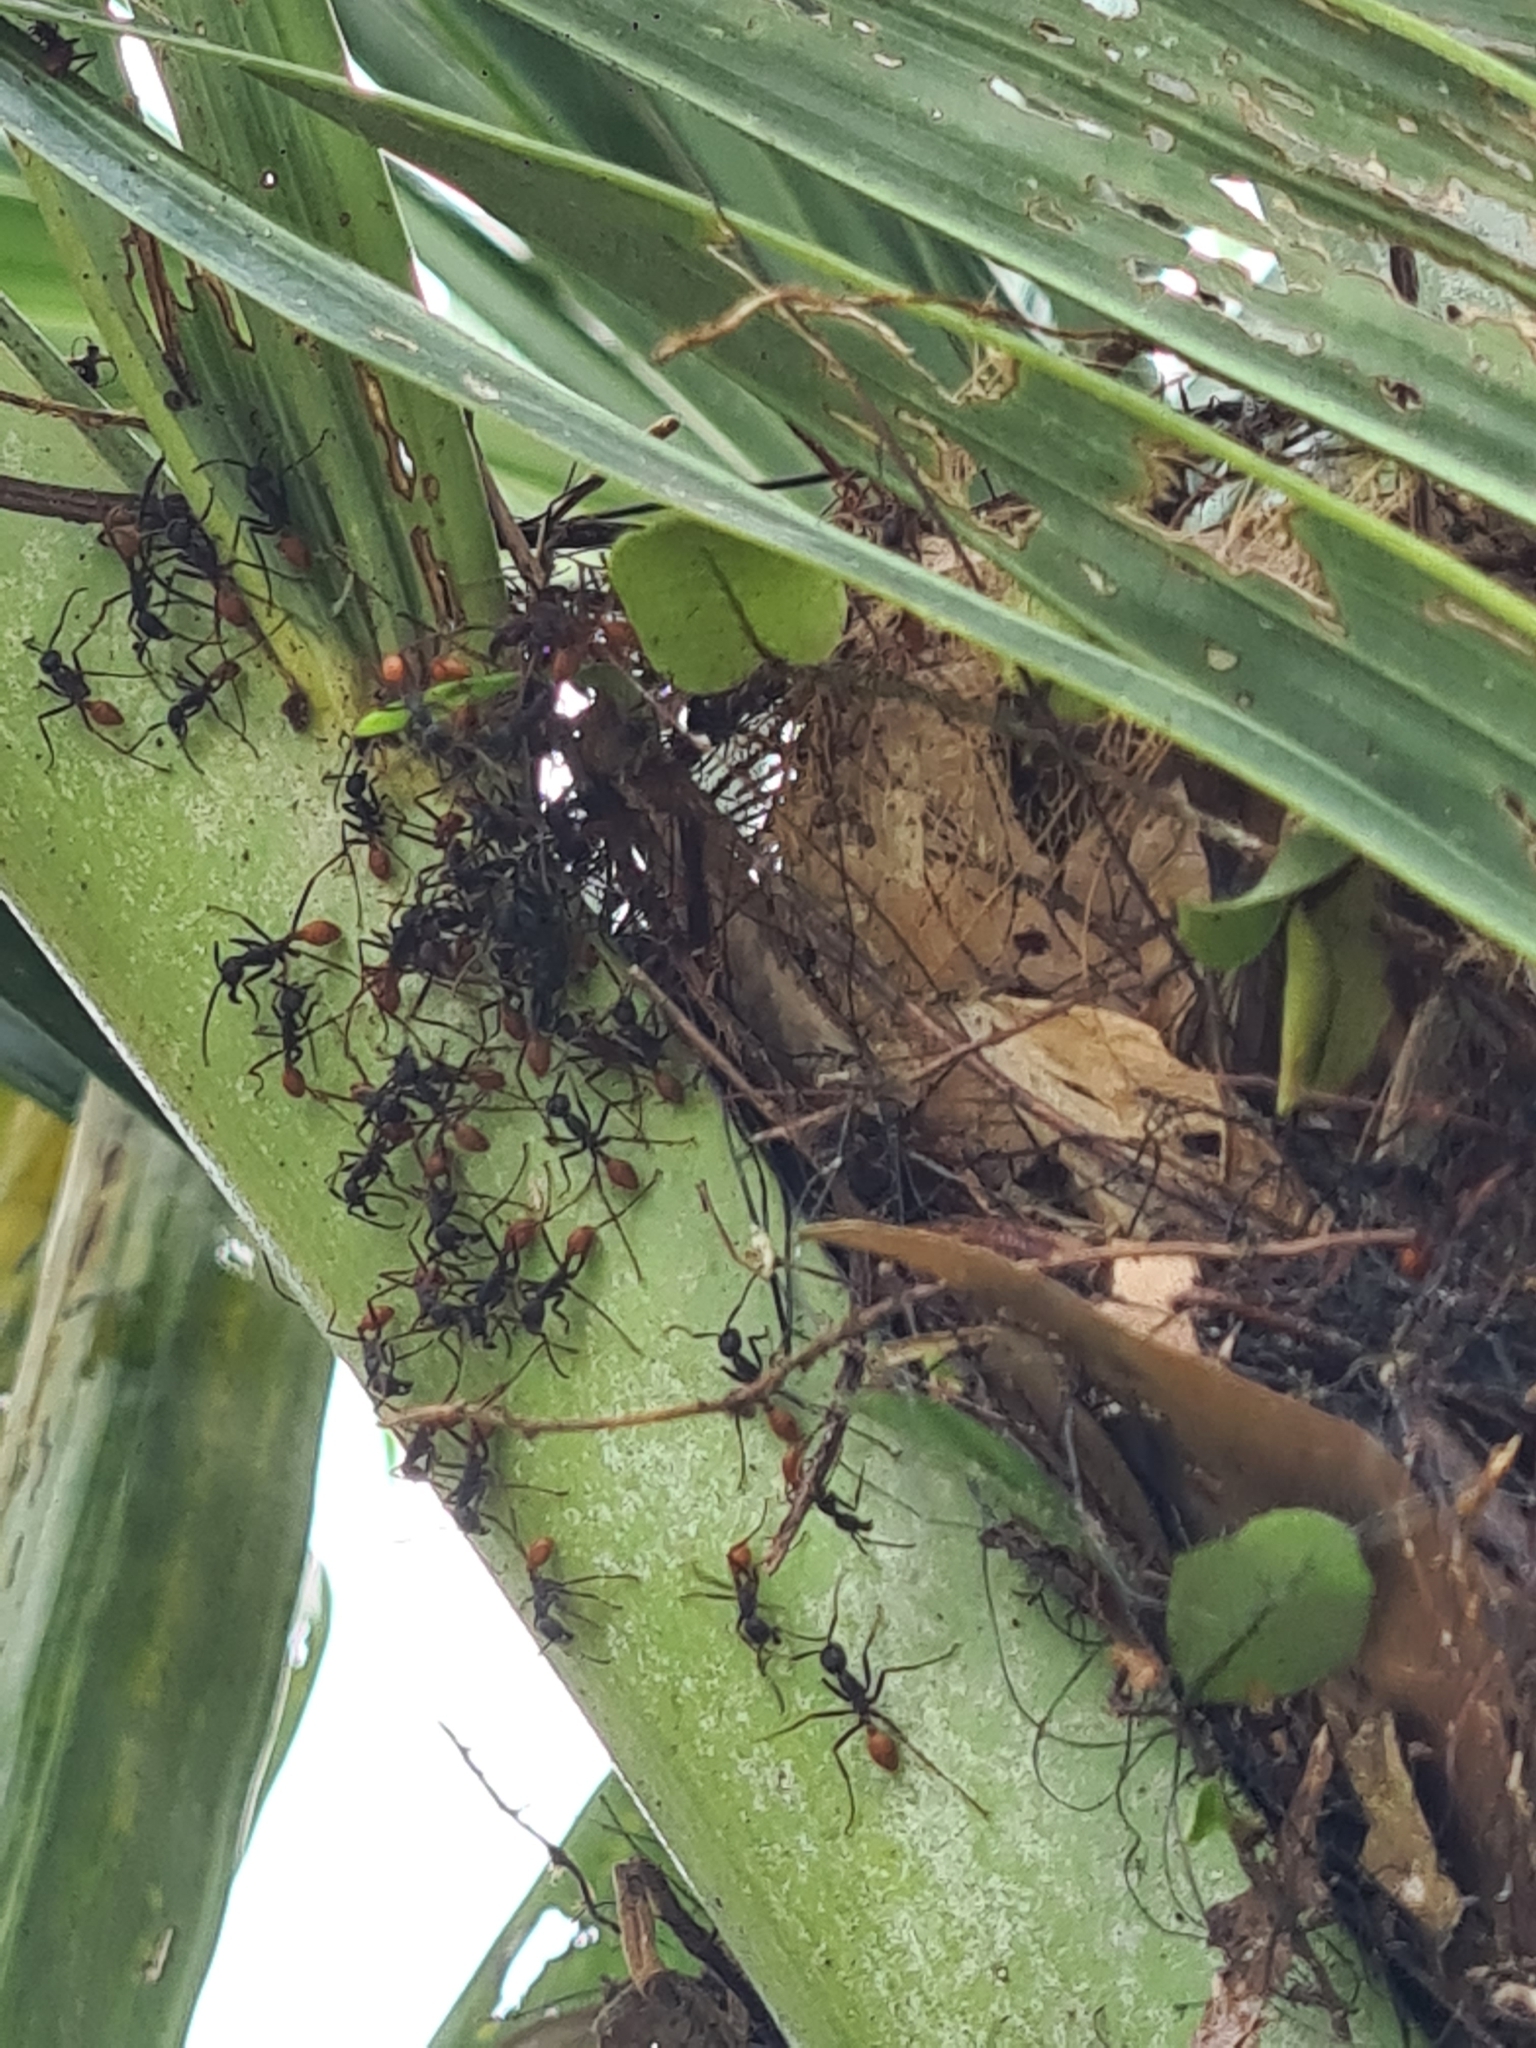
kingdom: Animalia
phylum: Arthropoda
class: Insecta
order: Hymenoptera
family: Formicidae
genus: Eciton
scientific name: Eciton burchellii
